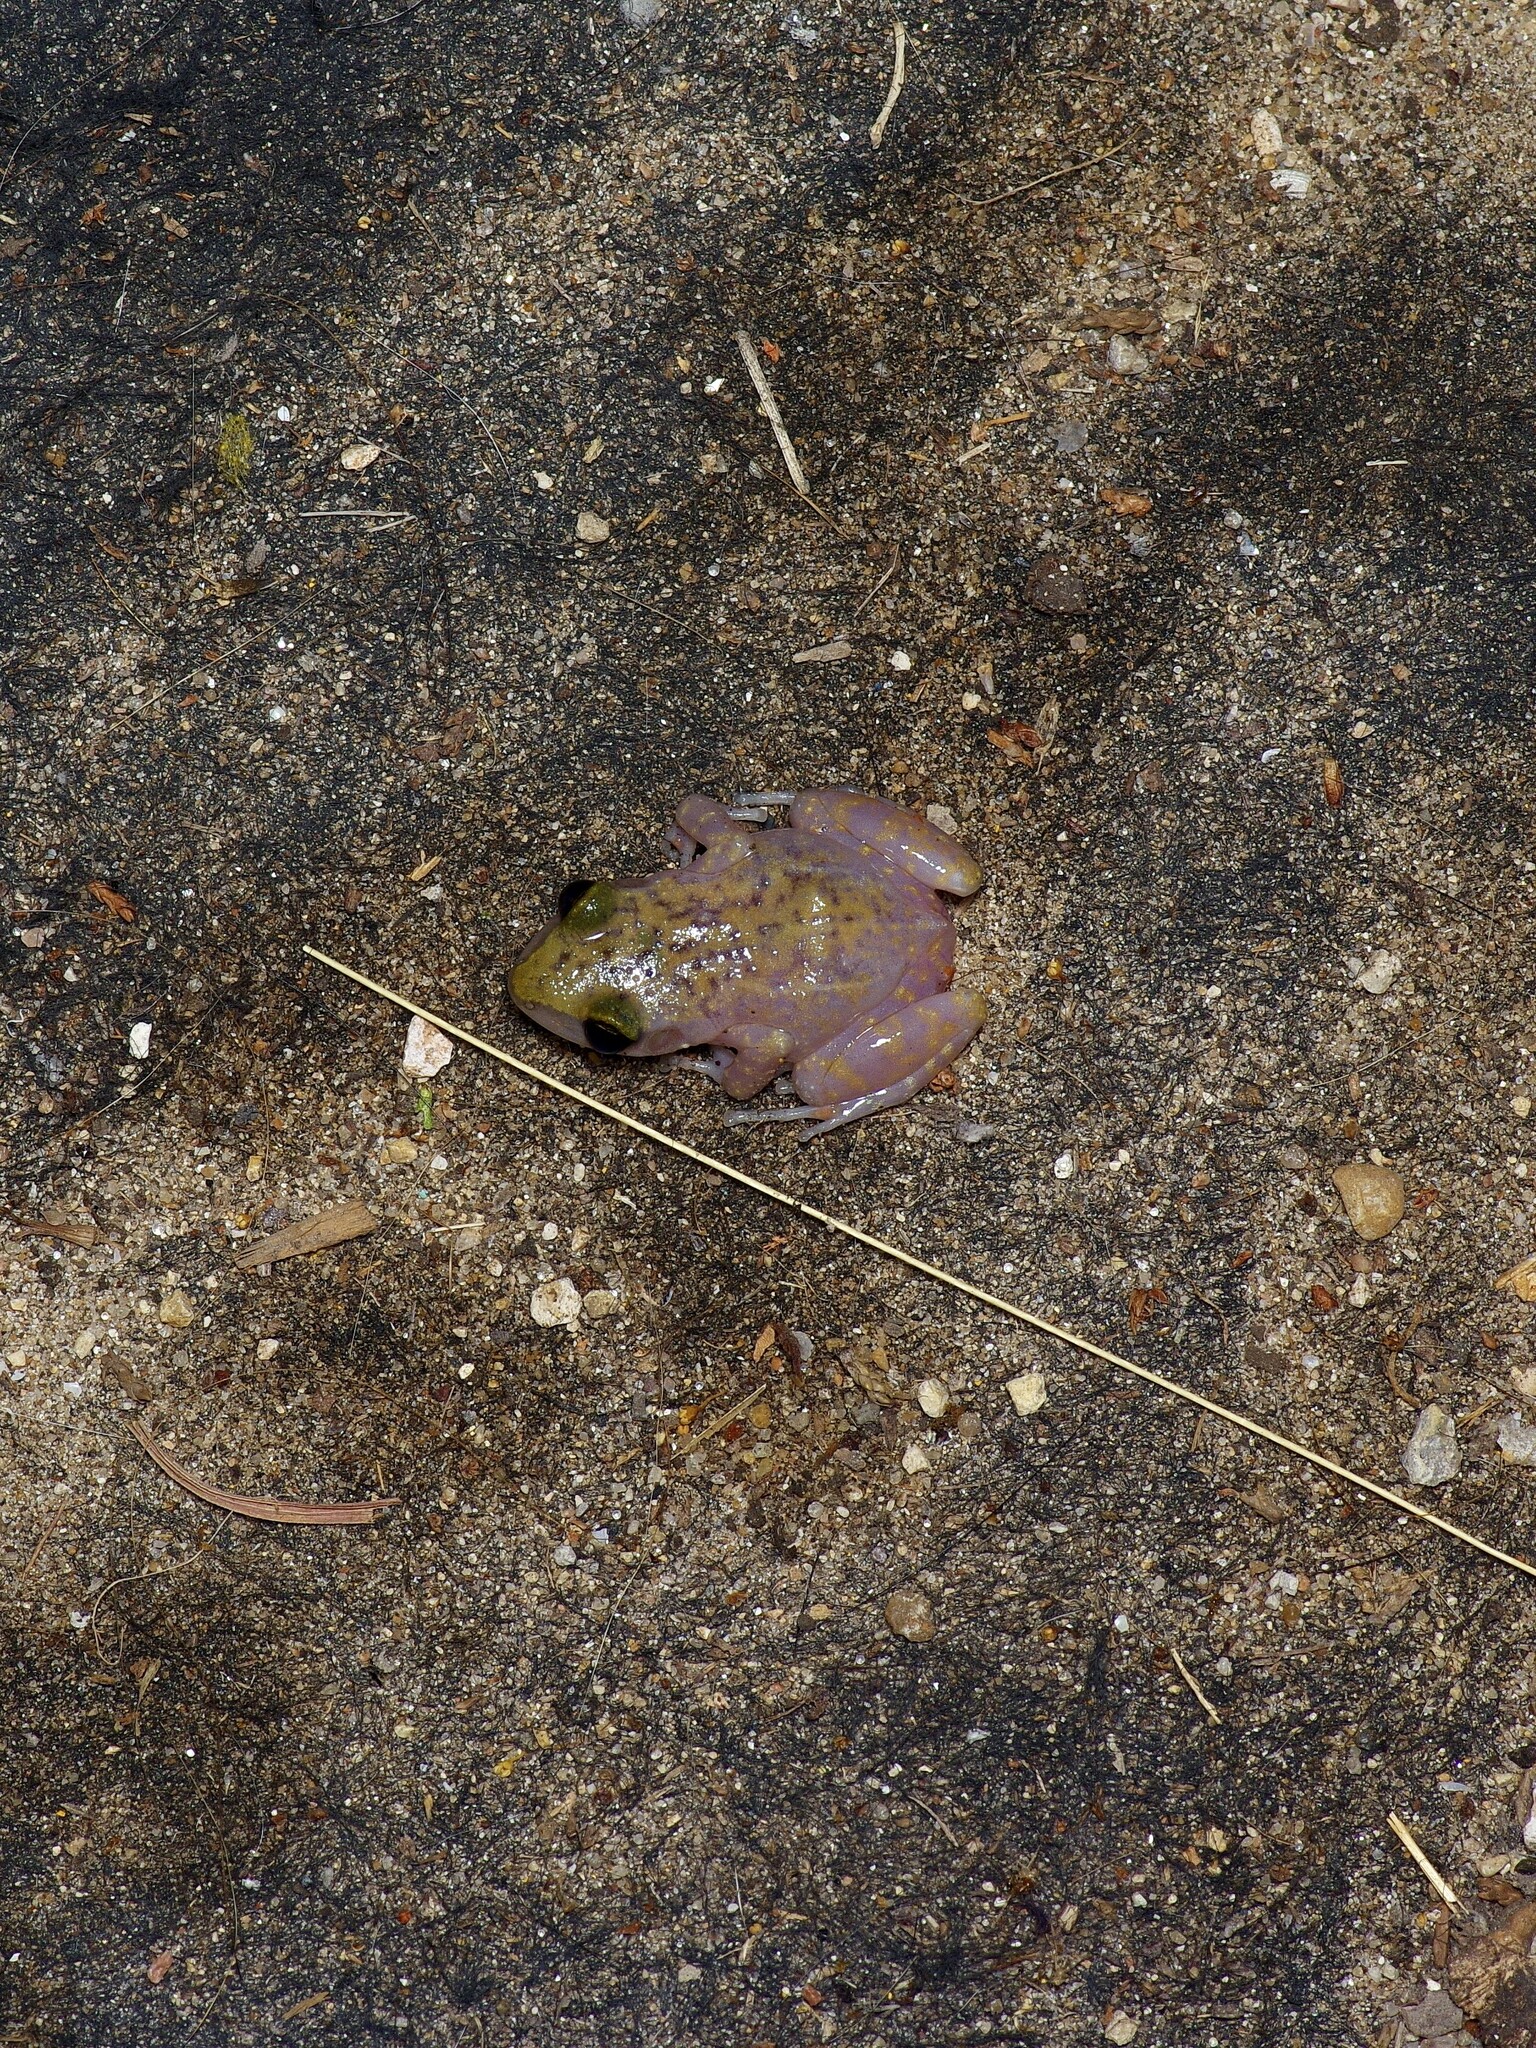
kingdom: Animalia
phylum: Chordata
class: Amphibia
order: Anura
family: Eleutherodactylidae
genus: Eleutherodactylus
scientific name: Eleutherodactylus marnockii
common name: Cliff chirping frog
